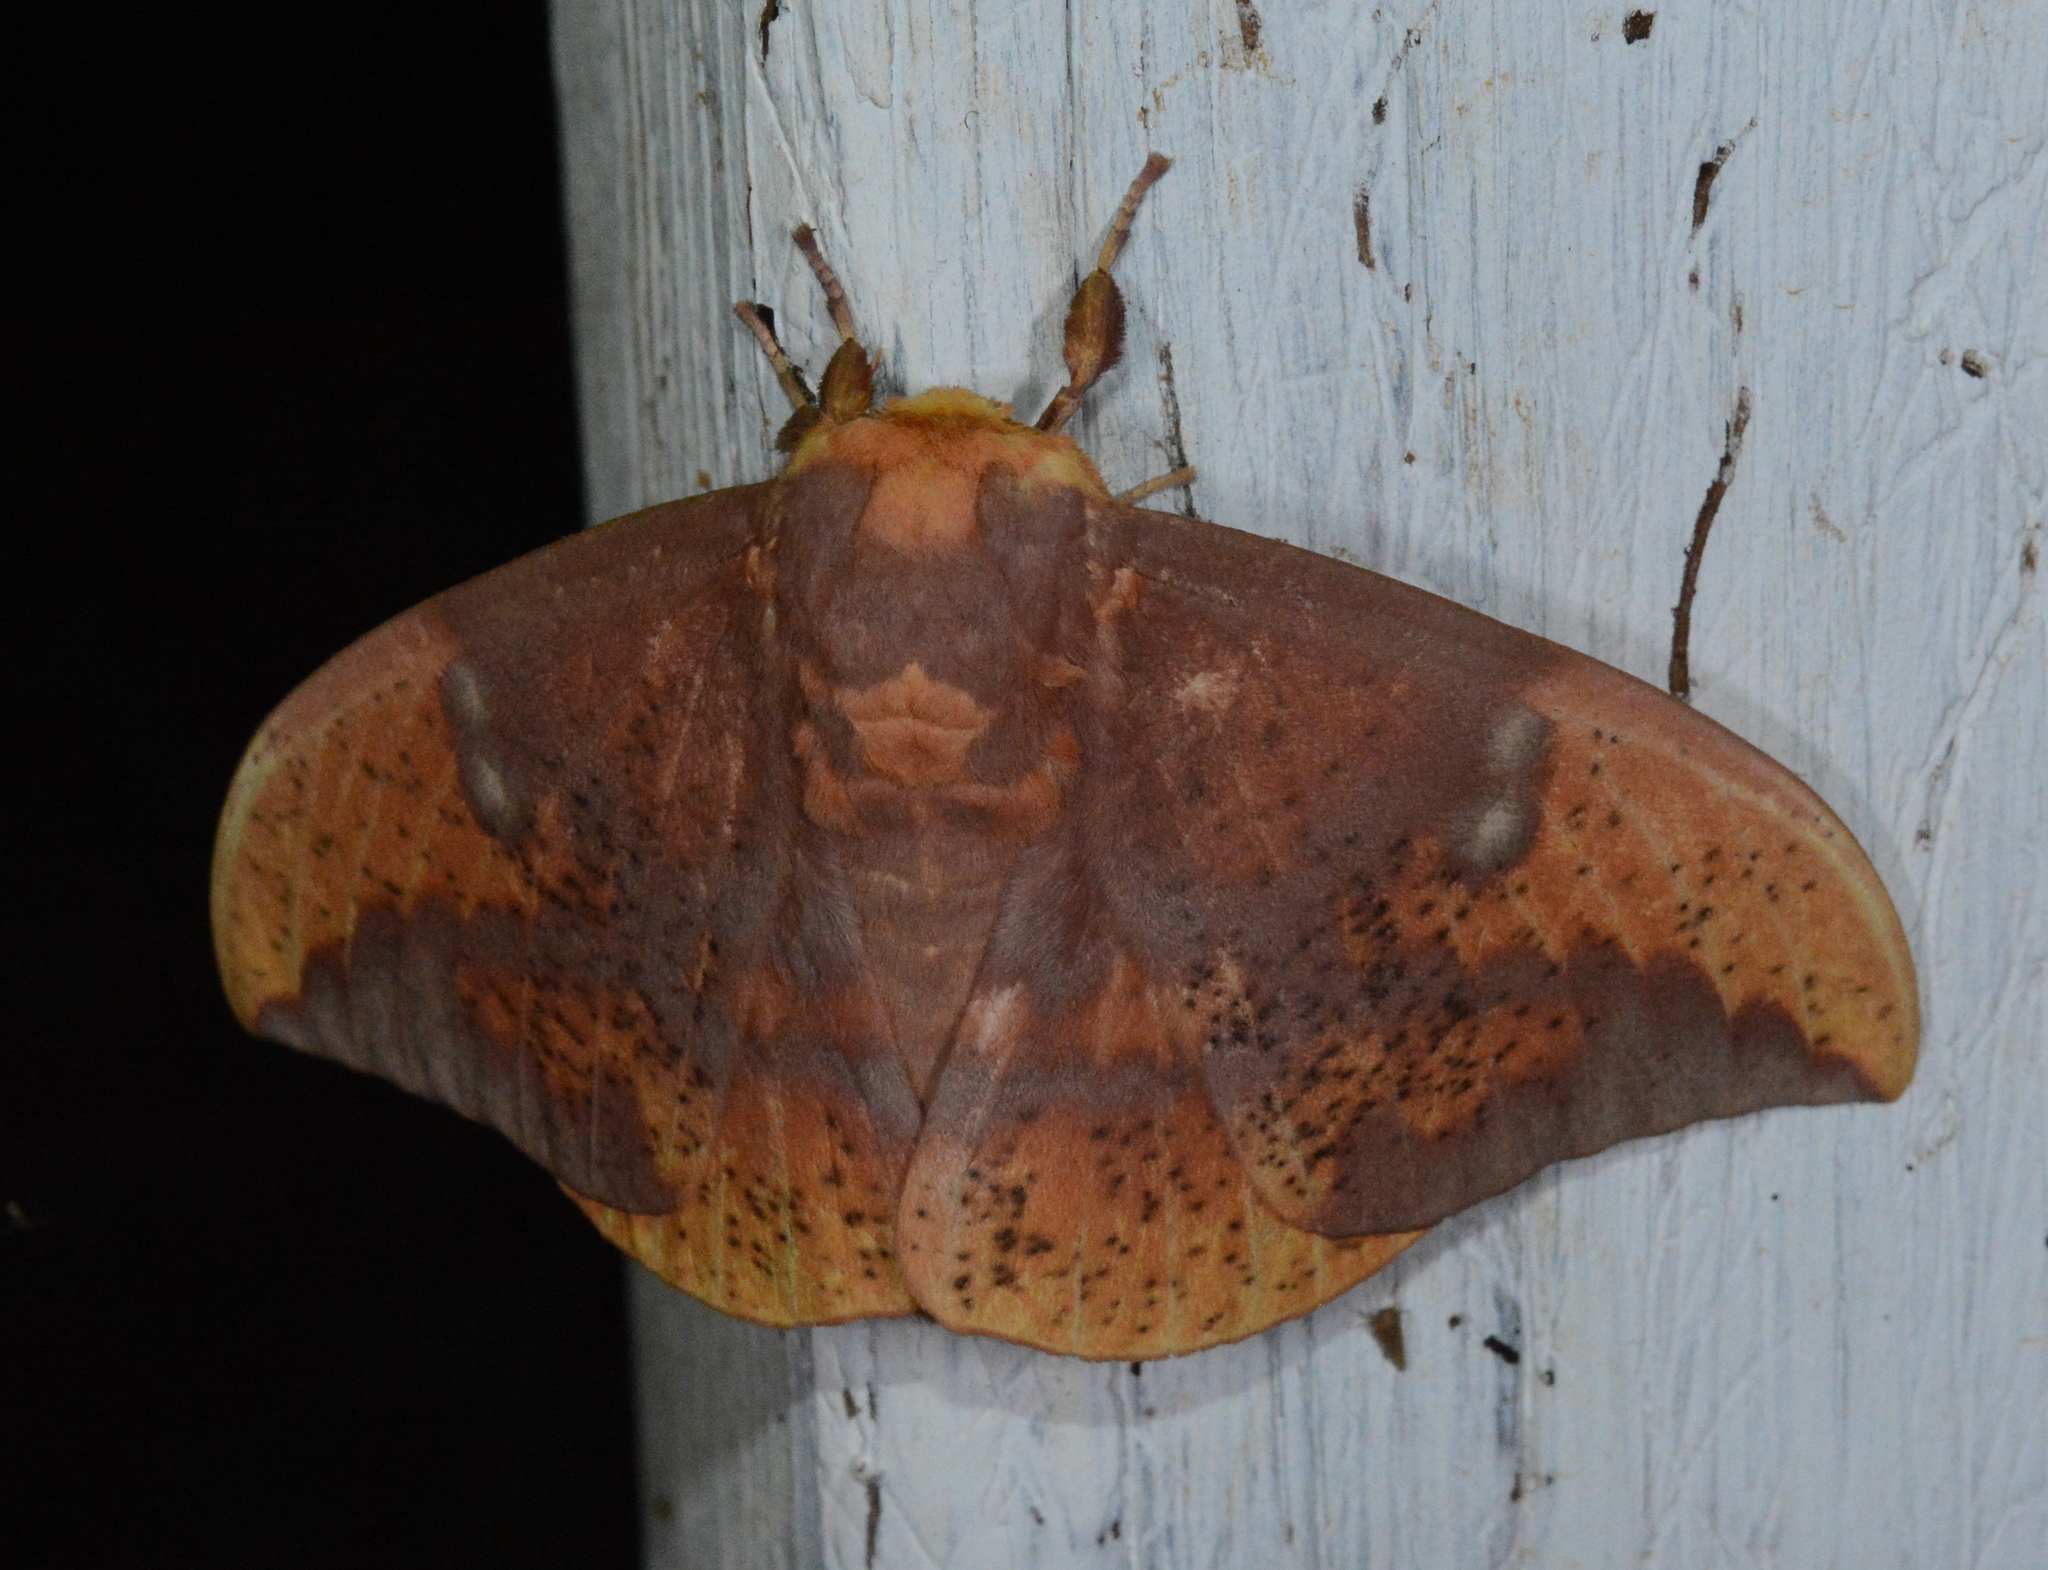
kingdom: Animalia
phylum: Arthropoda
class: Insecta
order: Lepidoptera
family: Saturniidae
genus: Eacles
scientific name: Eacles imperialis
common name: Imperial moth
